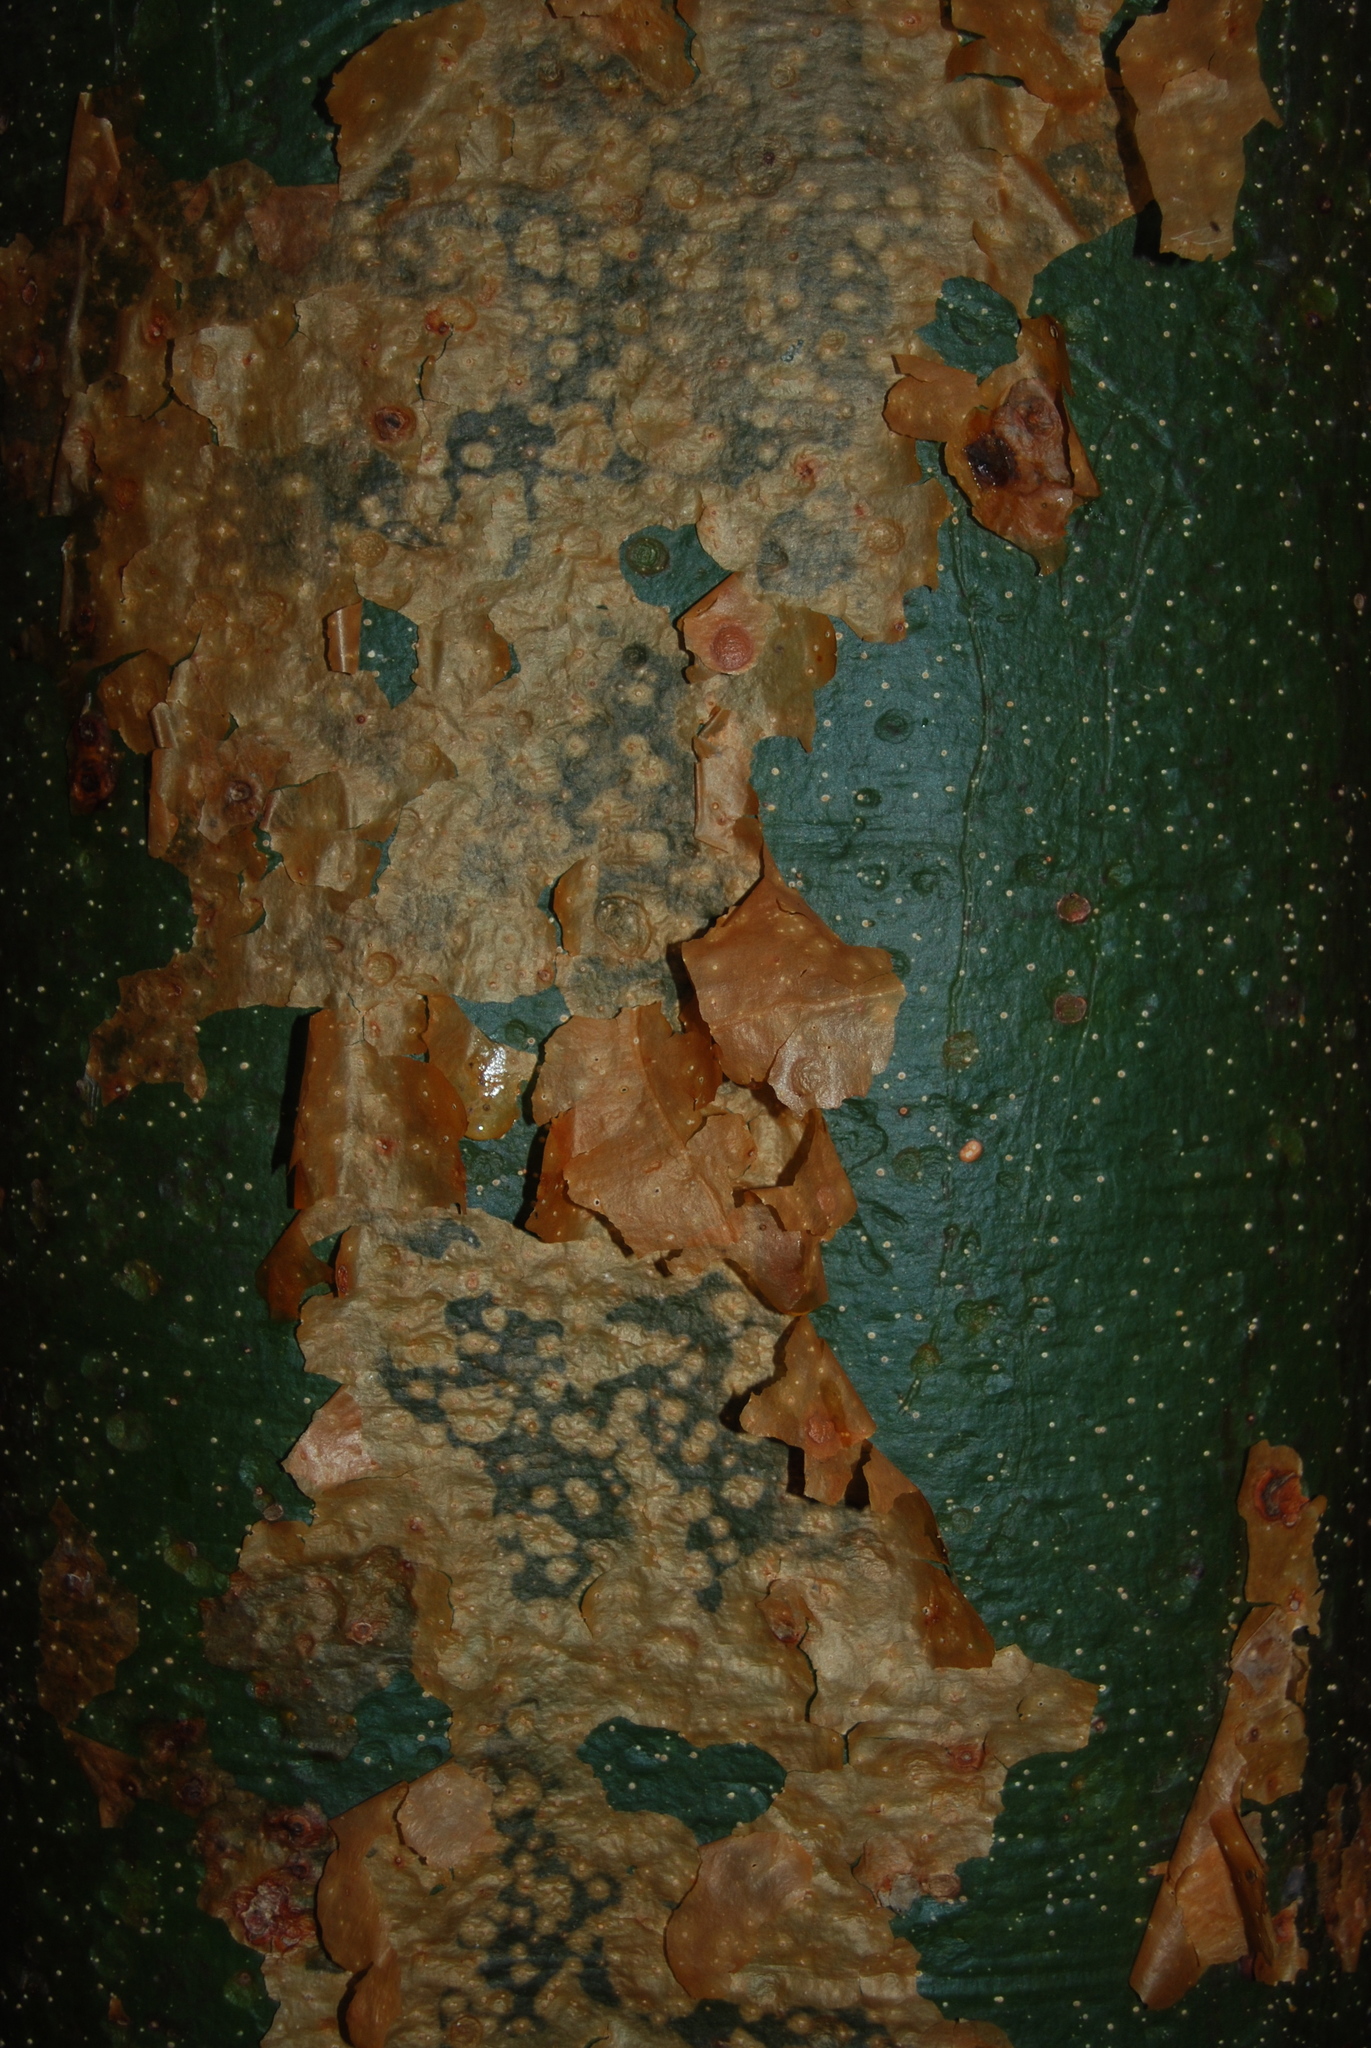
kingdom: Plantae
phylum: Tracheophyta
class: Magnoliopsida
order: Sapindales
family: Burseraceae
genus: Bursera
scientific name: Bursera simaruba
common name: Turpentine tree
